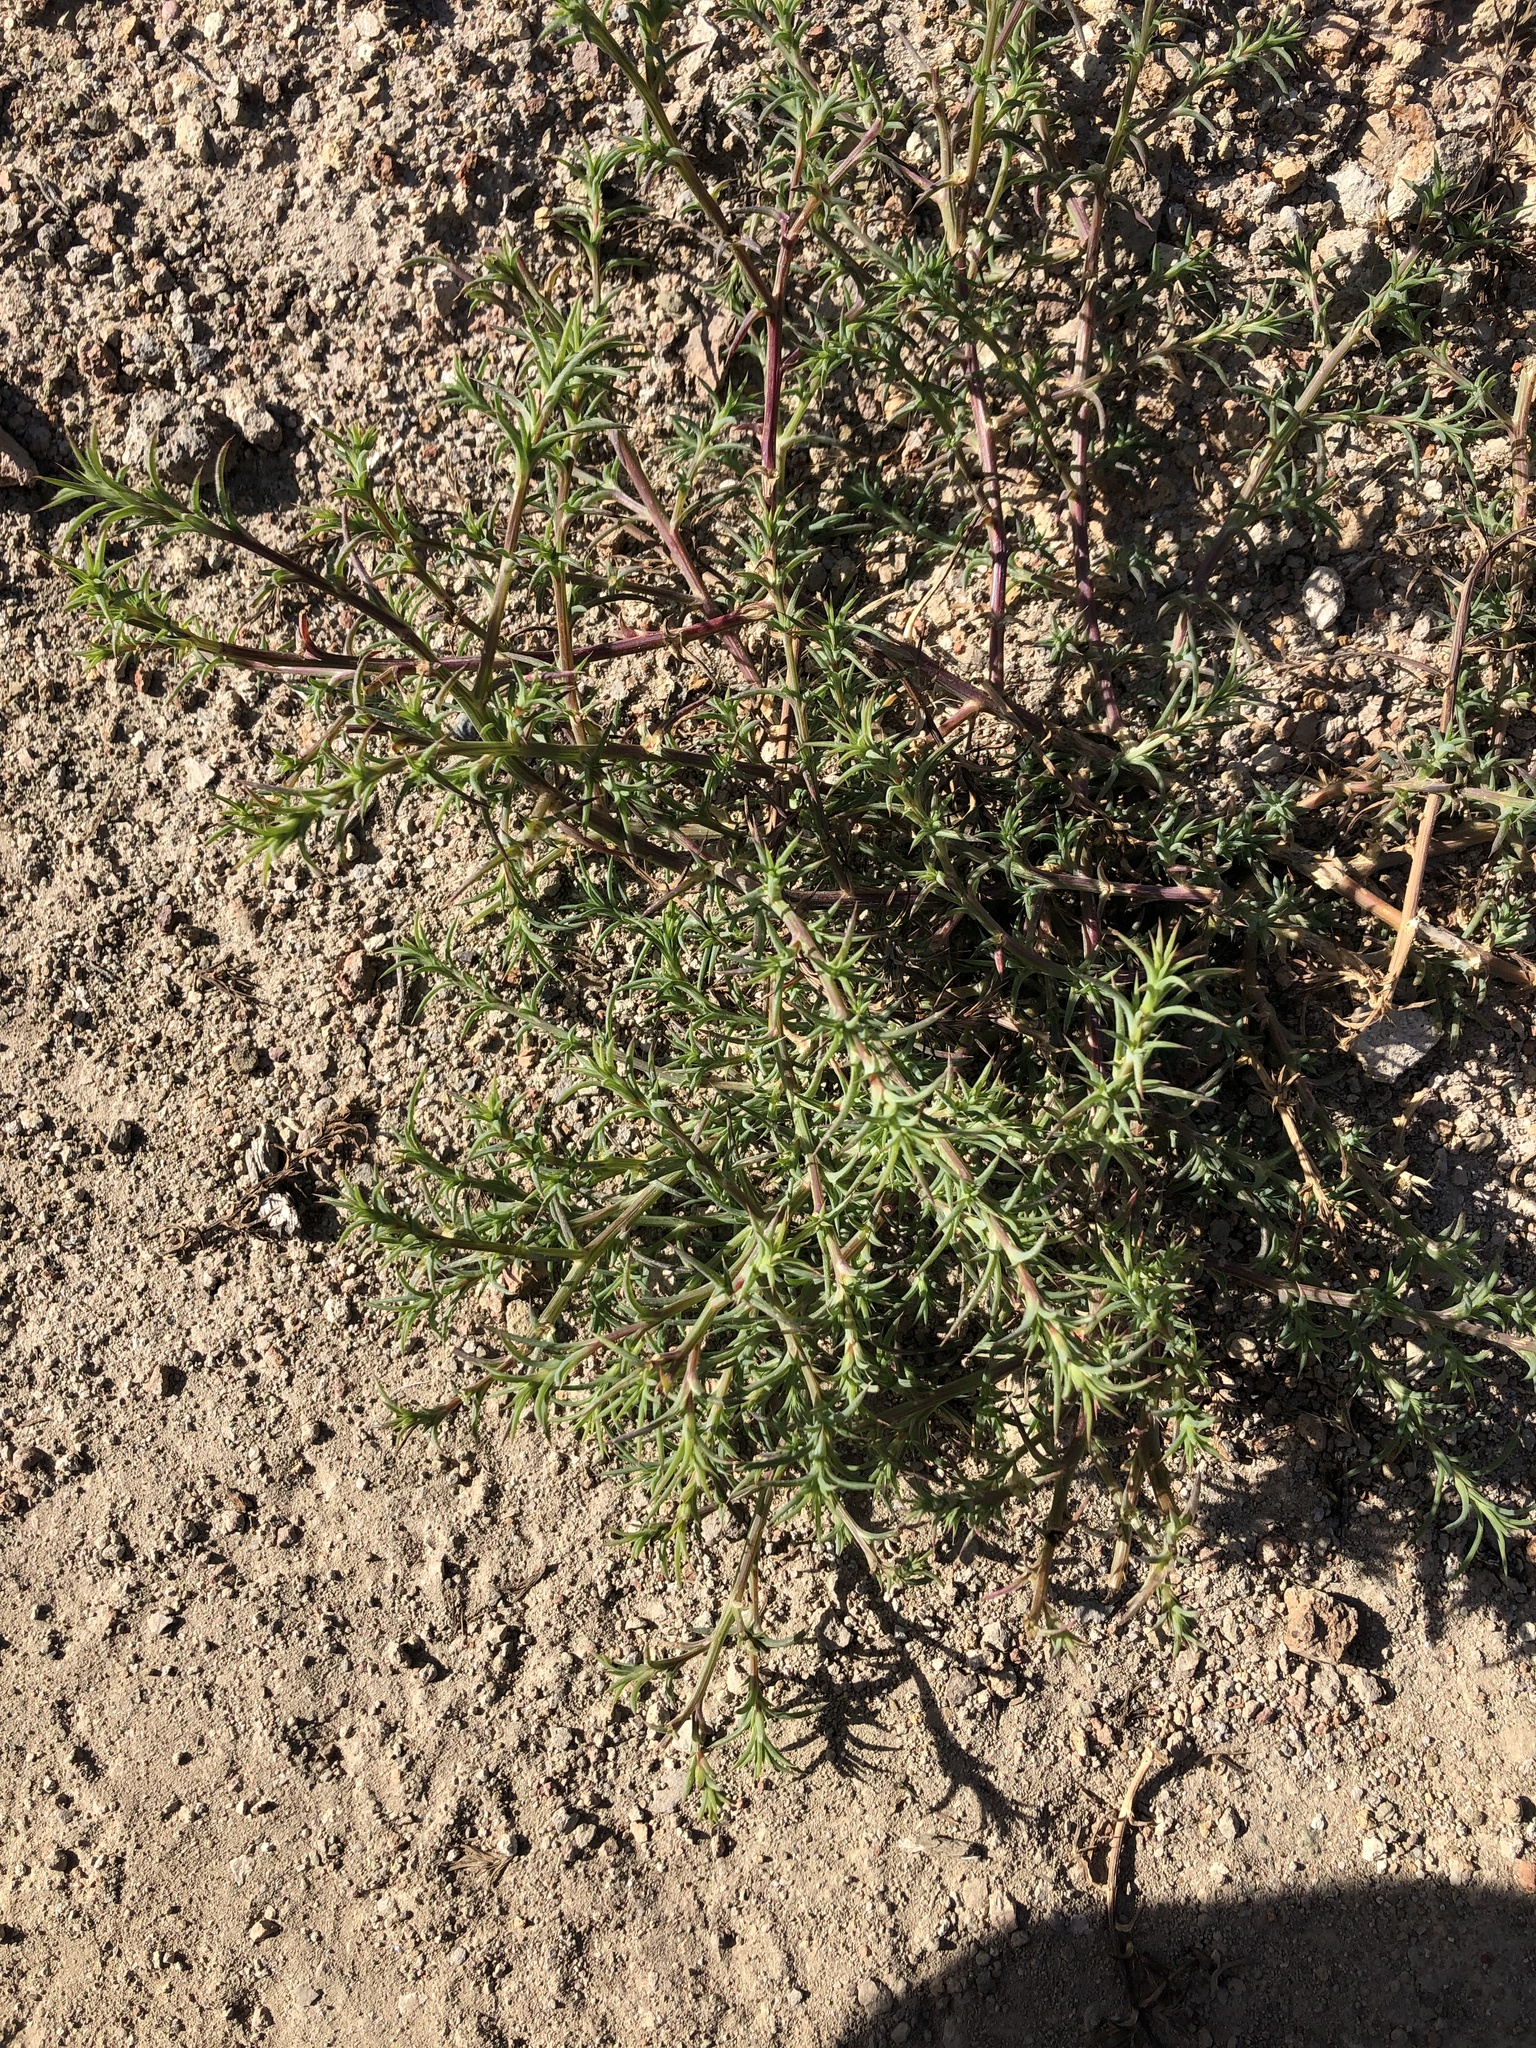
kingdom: Plantae
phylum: Tracheophyta
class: Magnoliopsida
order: Caryophyllales
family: Amaranthaceae
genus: Salsola
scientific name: Salsola tragus
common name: Prickly russian thistle
